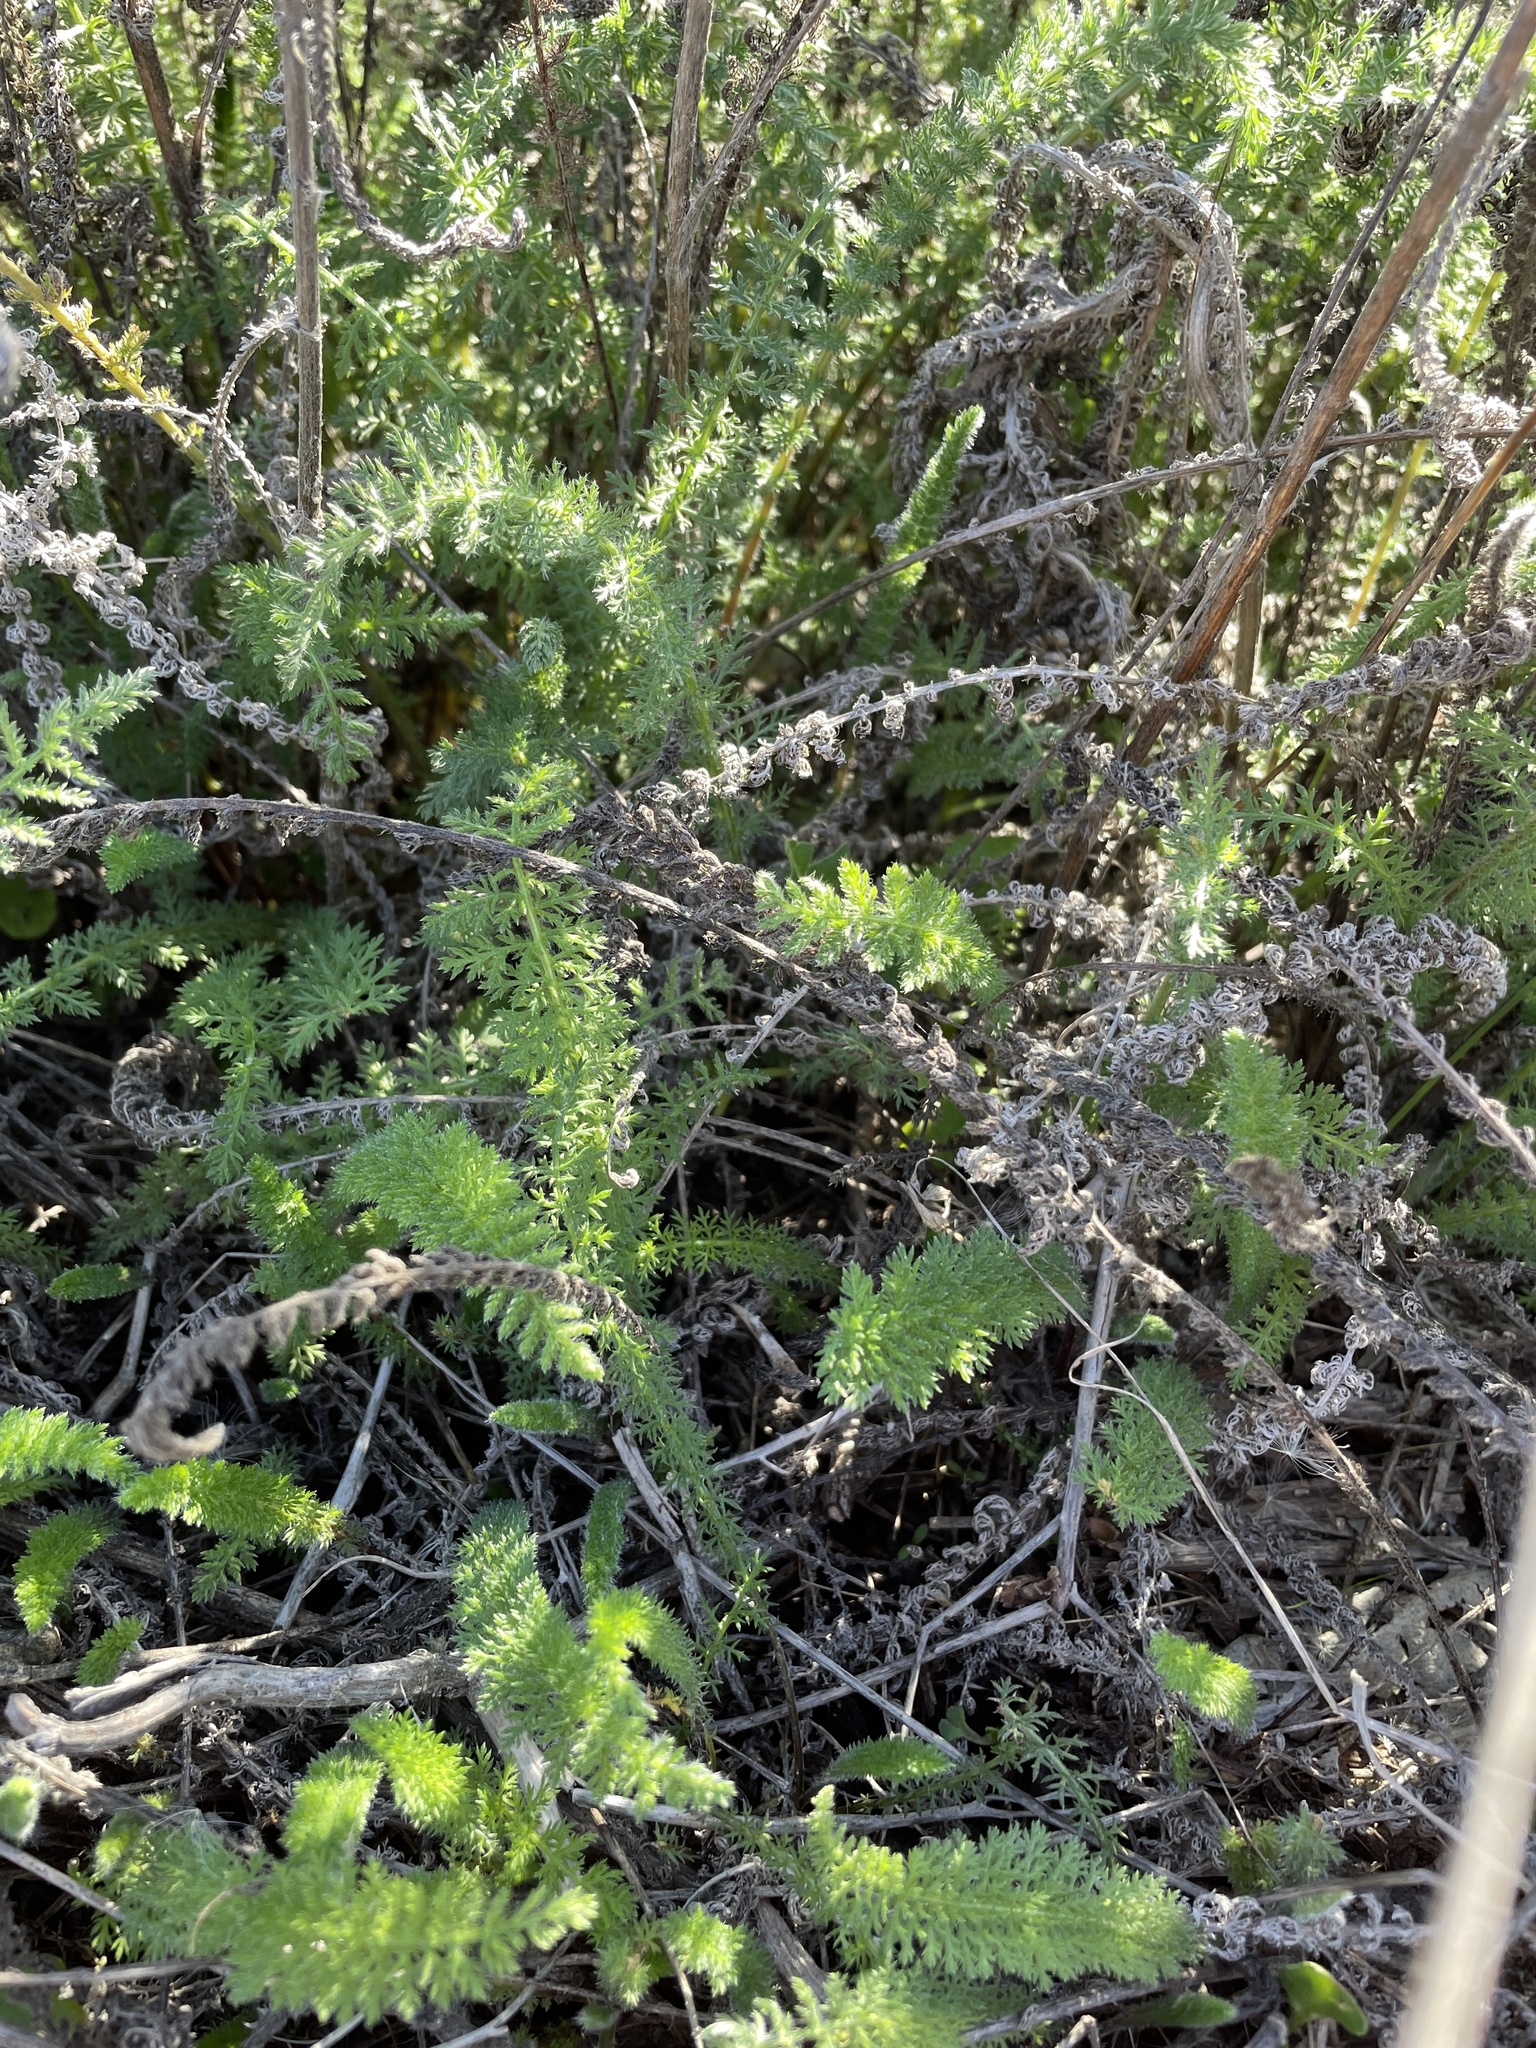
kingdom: Plantae
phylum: Tracheophyta
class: Magnoliopsida
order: Asterales
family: Asteraceae
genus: Achillea
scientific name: Achillea millefolium
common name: Yarrow
